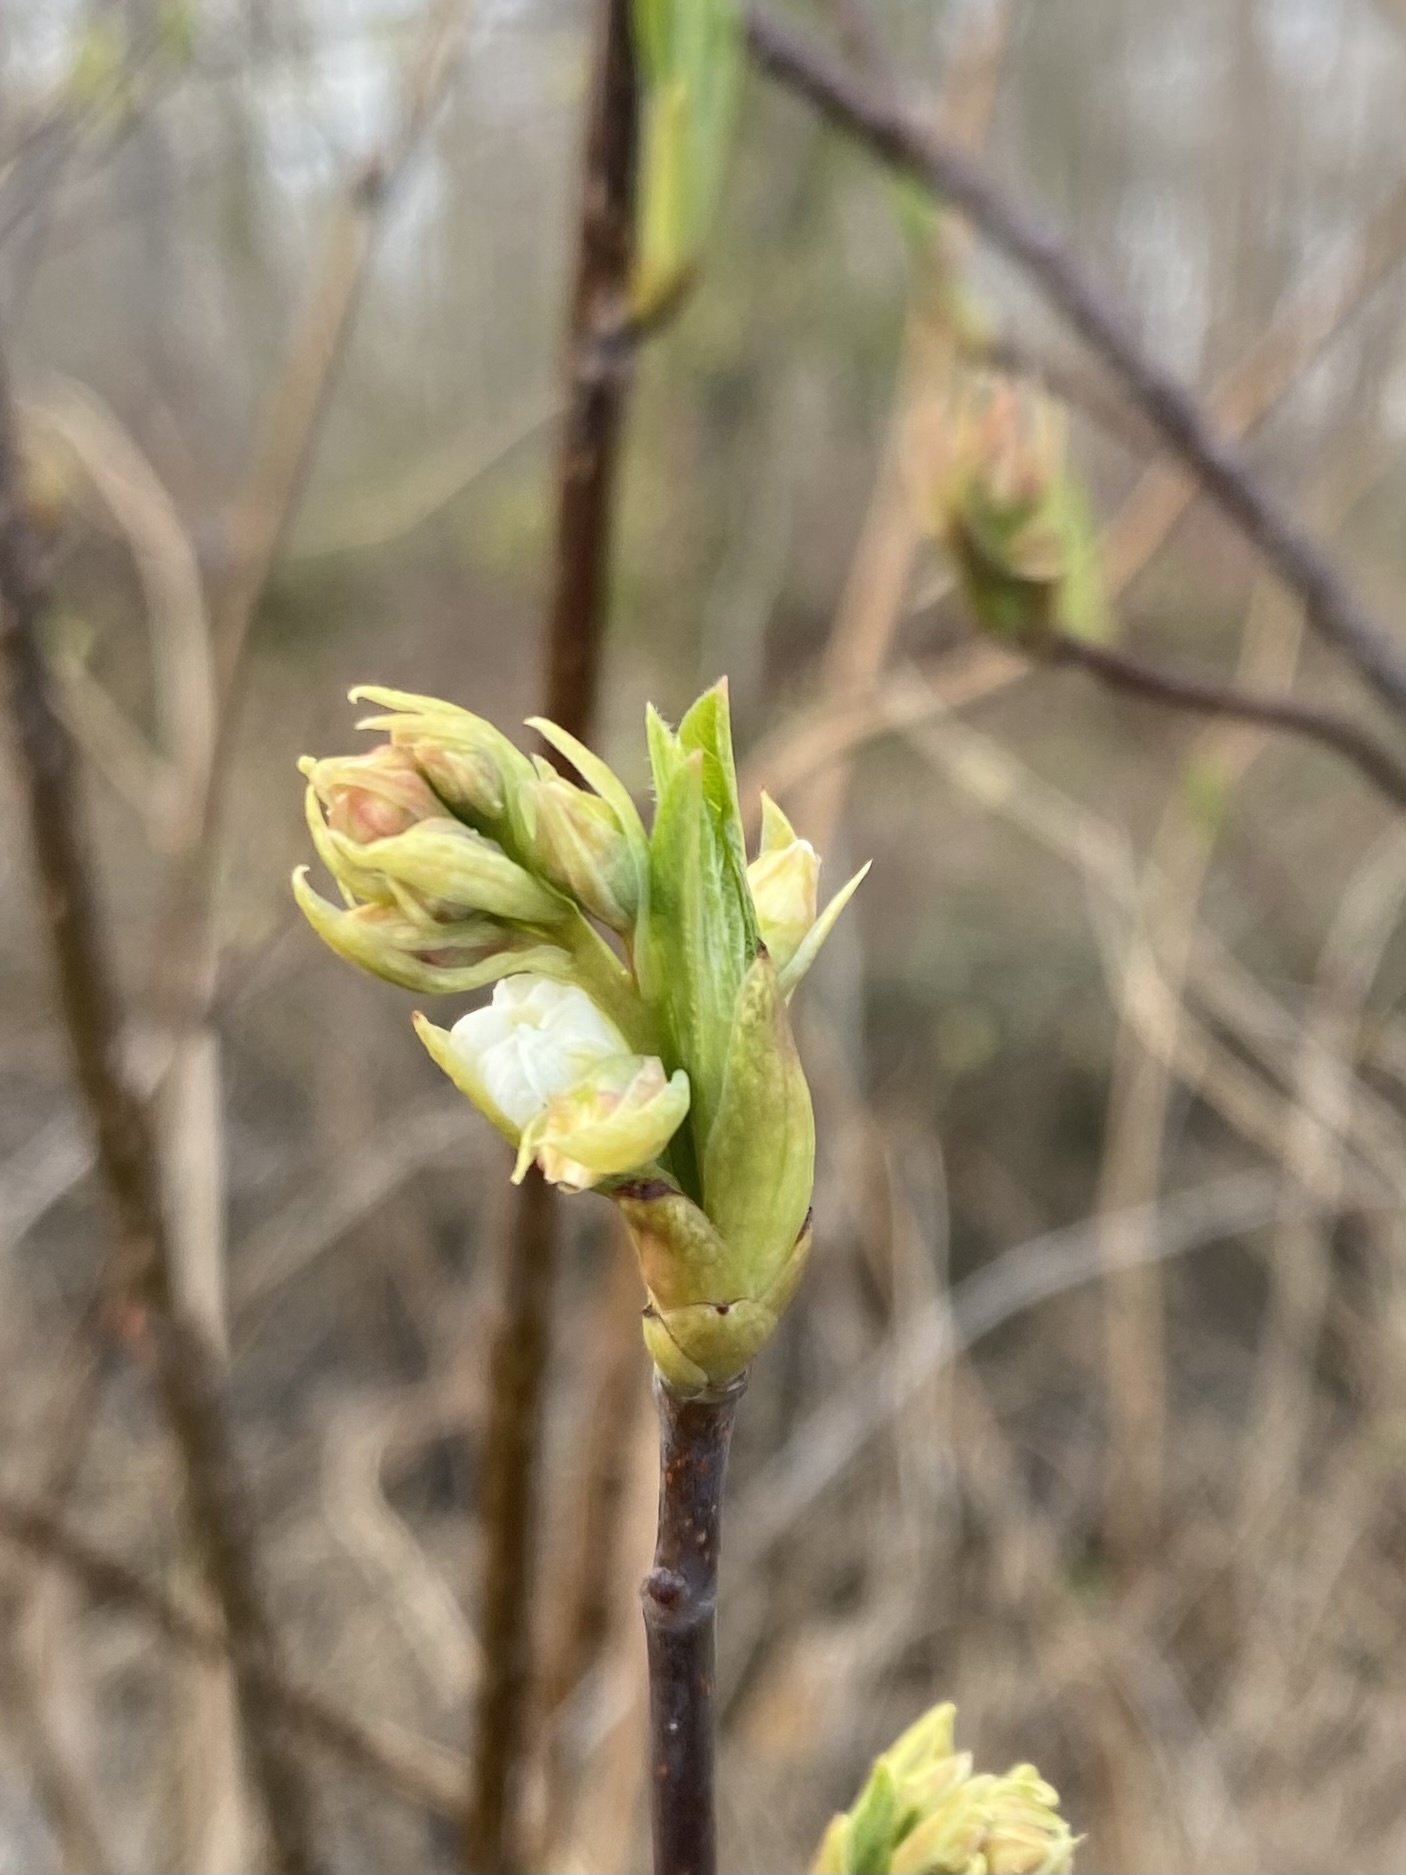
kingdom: Plantae
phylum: Tracheophyta
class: Magnoliopsida
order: Rosales
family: Rosaceae
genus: Oemleria
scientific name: Oemleria cerasiformis
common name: Osoberry
